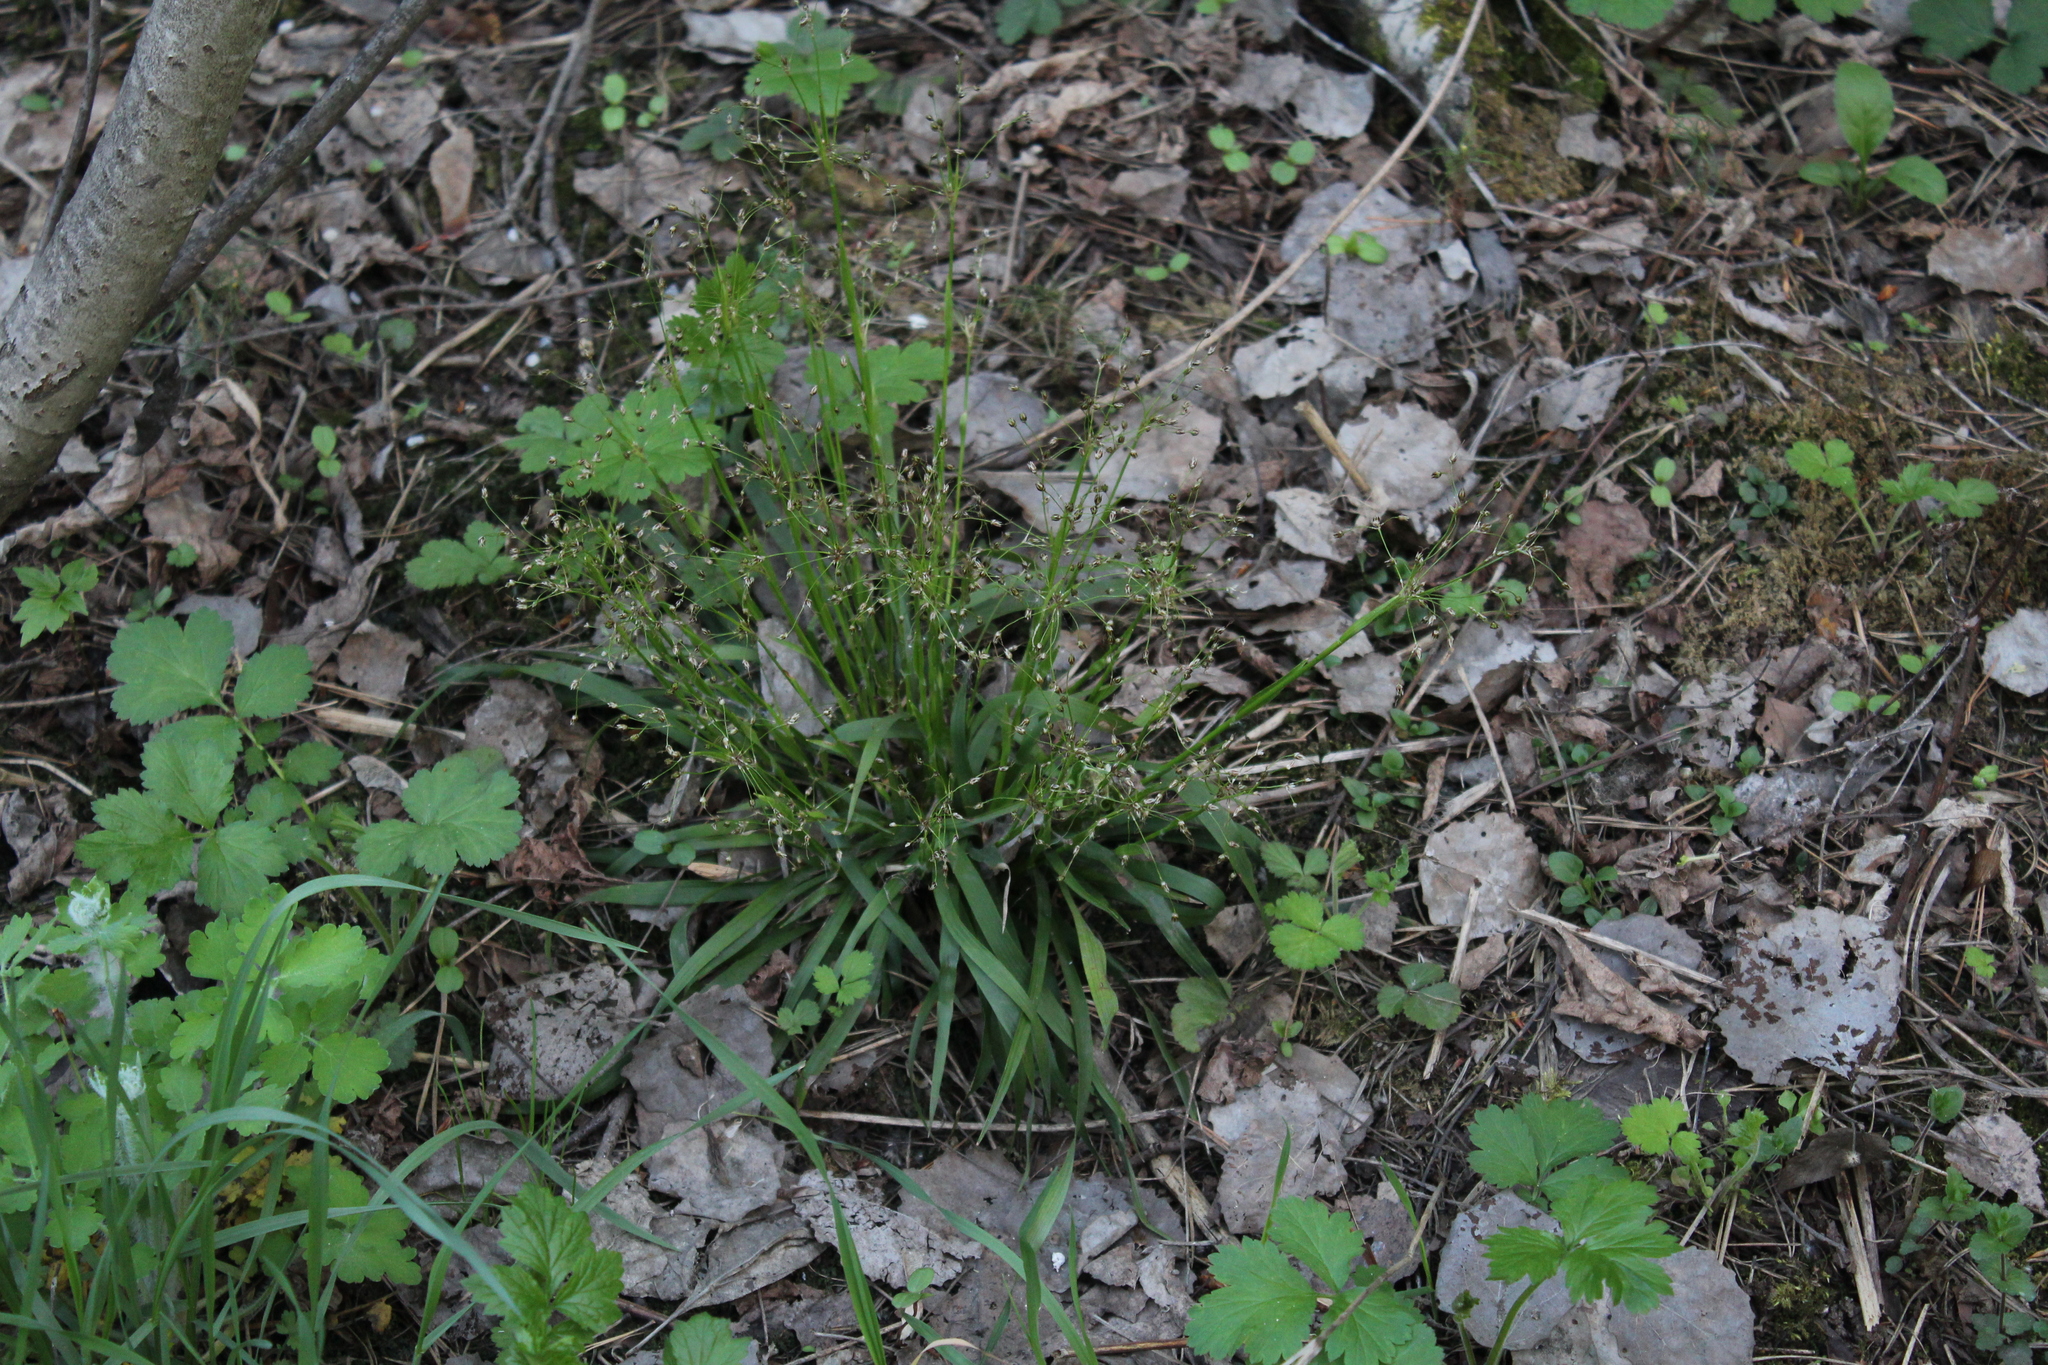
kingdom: Plantae
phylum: Tracheophyta
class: Liliopsida
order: Poales
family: Juncaceae
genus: Luzula
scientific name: Luzula pilosa
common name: Hairy wood-rush
